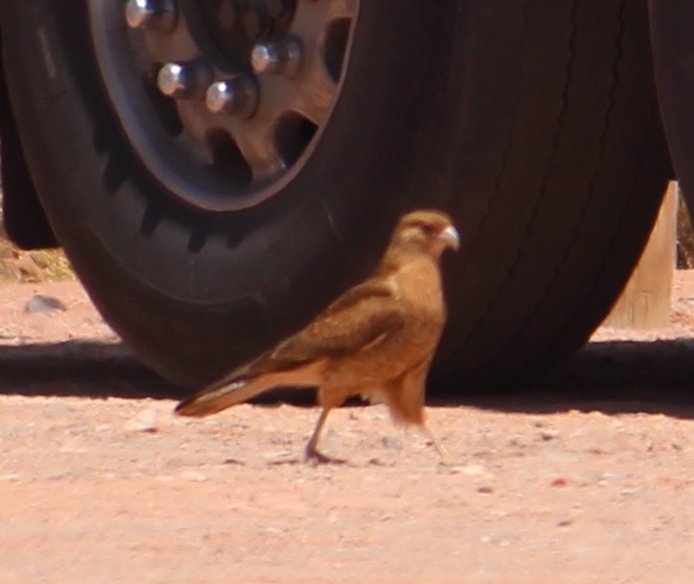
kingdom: Animalia
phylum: Chordata
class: Aves
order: Falconiformes
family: Falconidae
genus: Daptrius
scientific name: Daptrius
